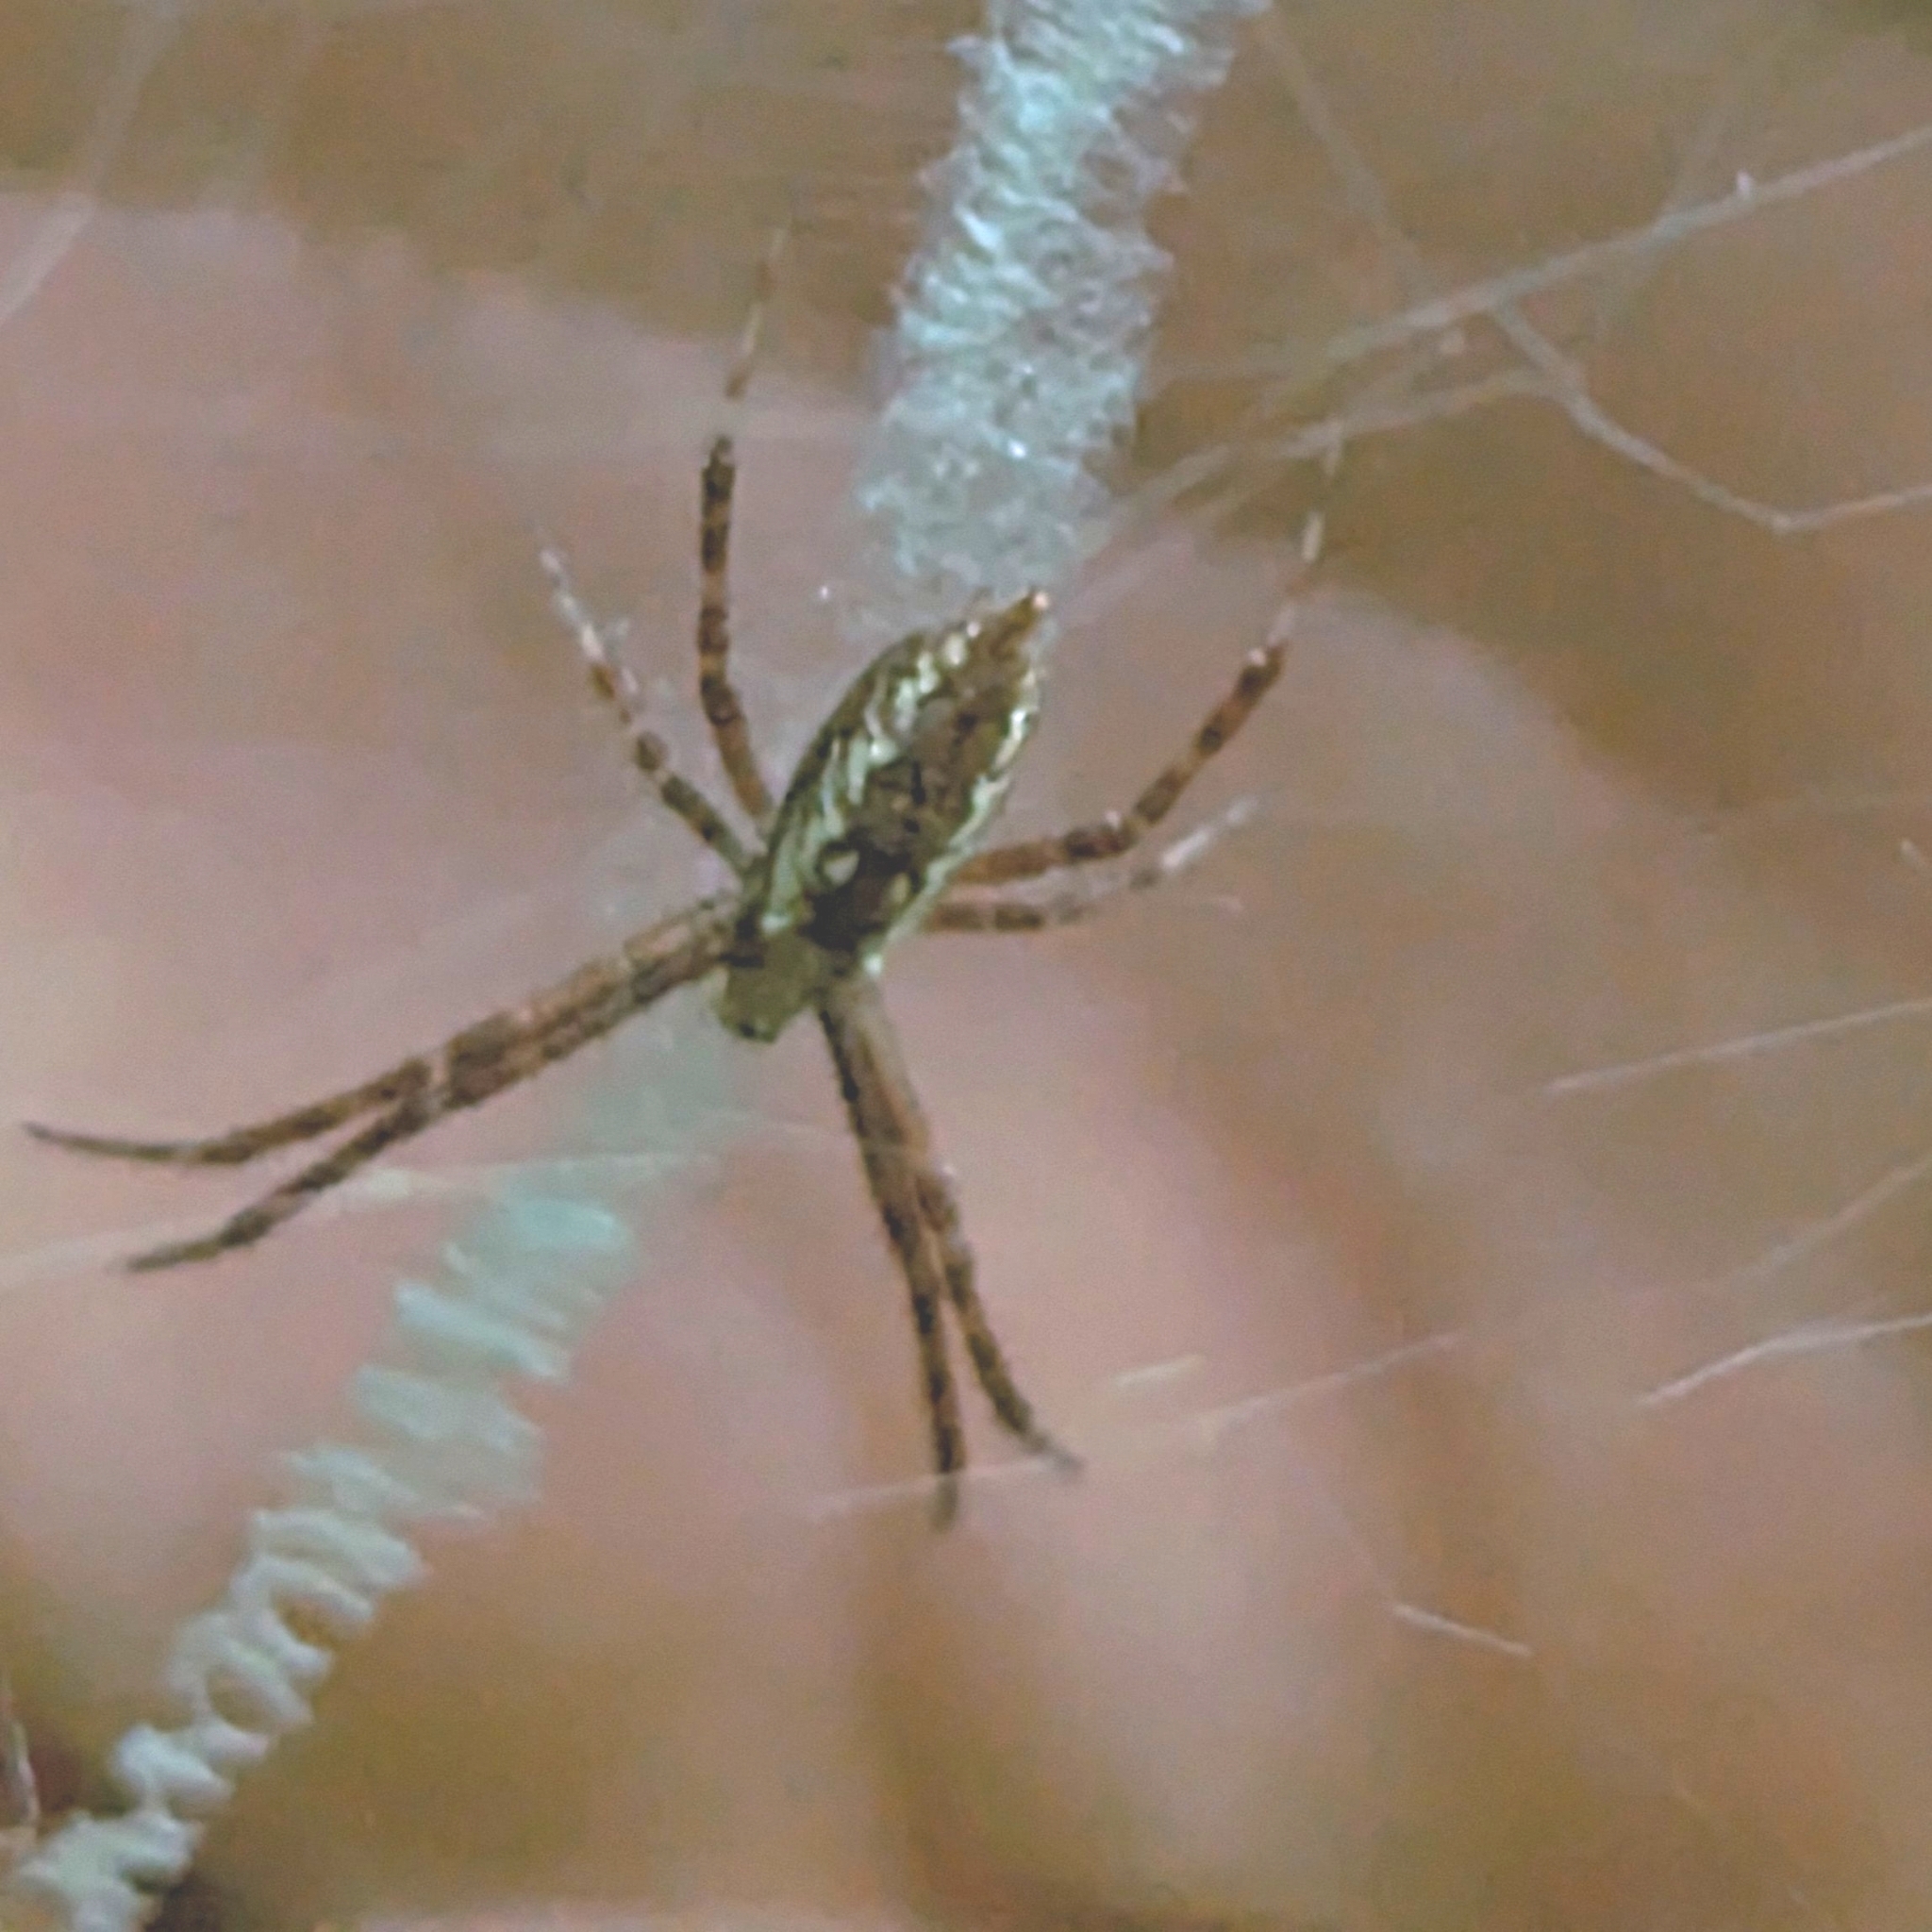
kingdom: Animalia
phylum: Arthropoda
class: Arachnida
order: Araneae
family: Araneidae
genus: Argiope
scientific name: Argiope aurantia
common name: Orb weavers
